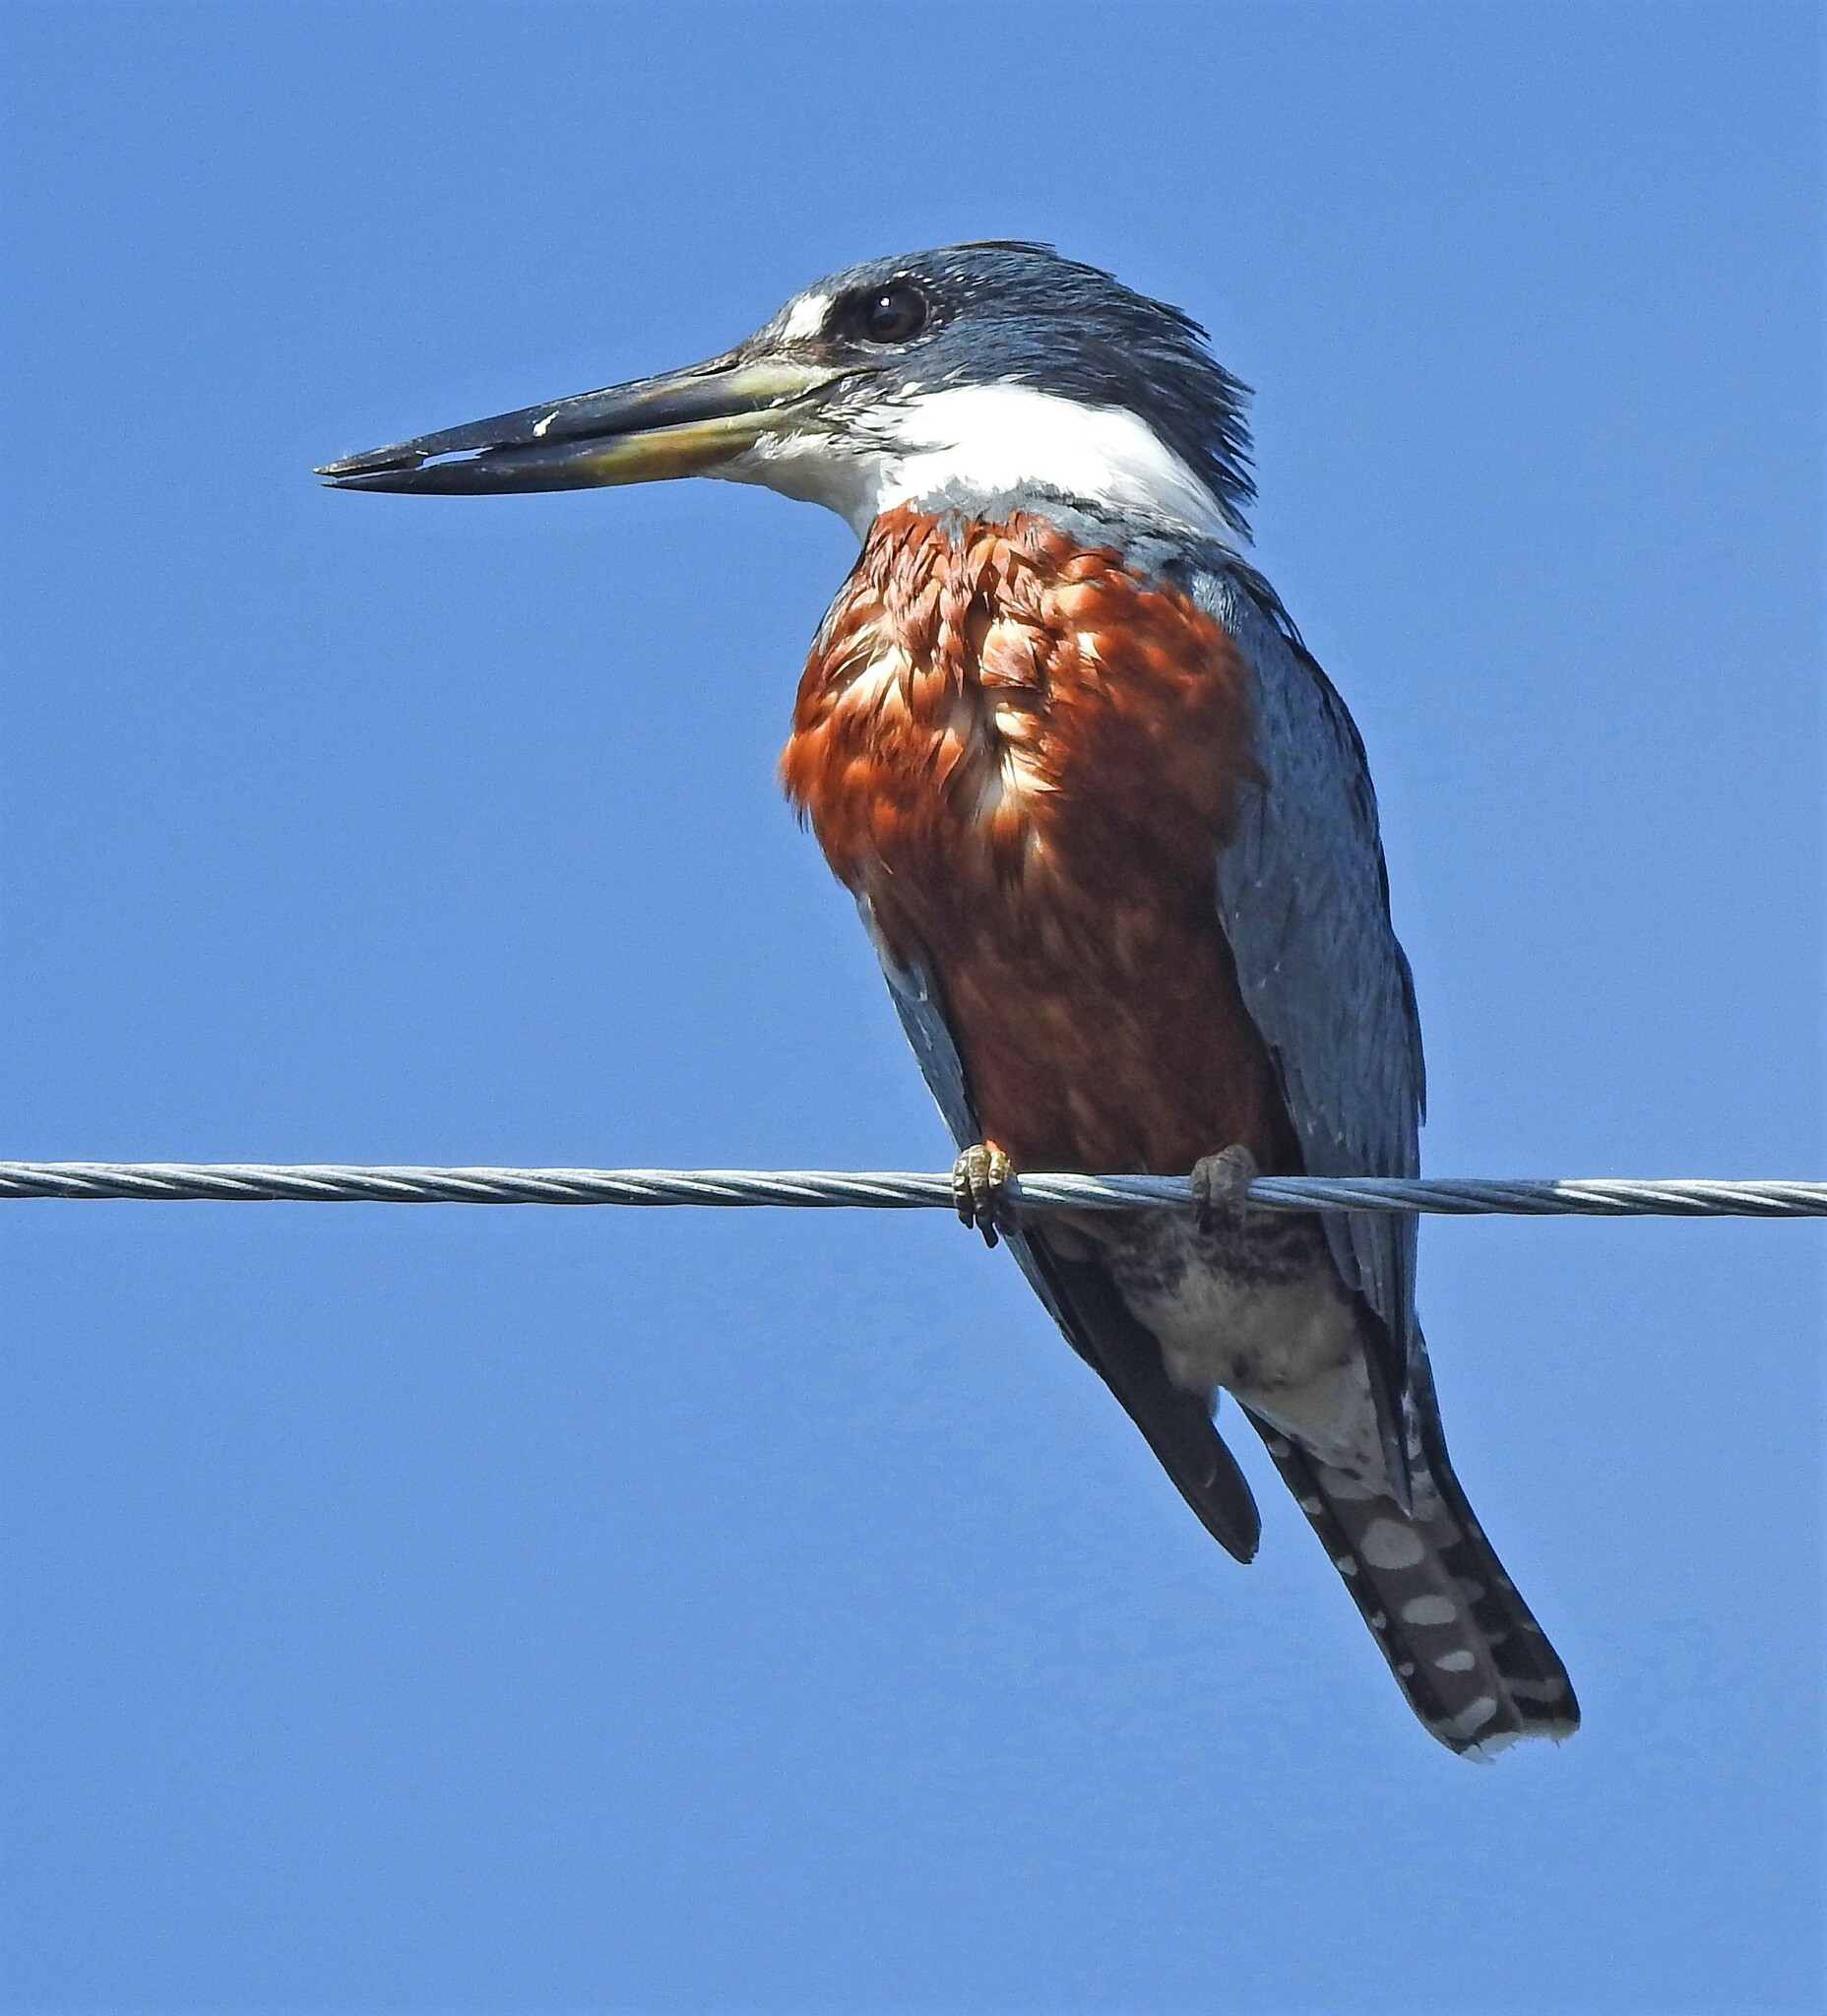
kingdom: Animalia
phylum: Chordata
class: Aves
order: Coraciiformes
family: Alcedinidae
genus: Megaceryle
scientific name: Megaceryle torquata
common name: Ringed kingfisher
